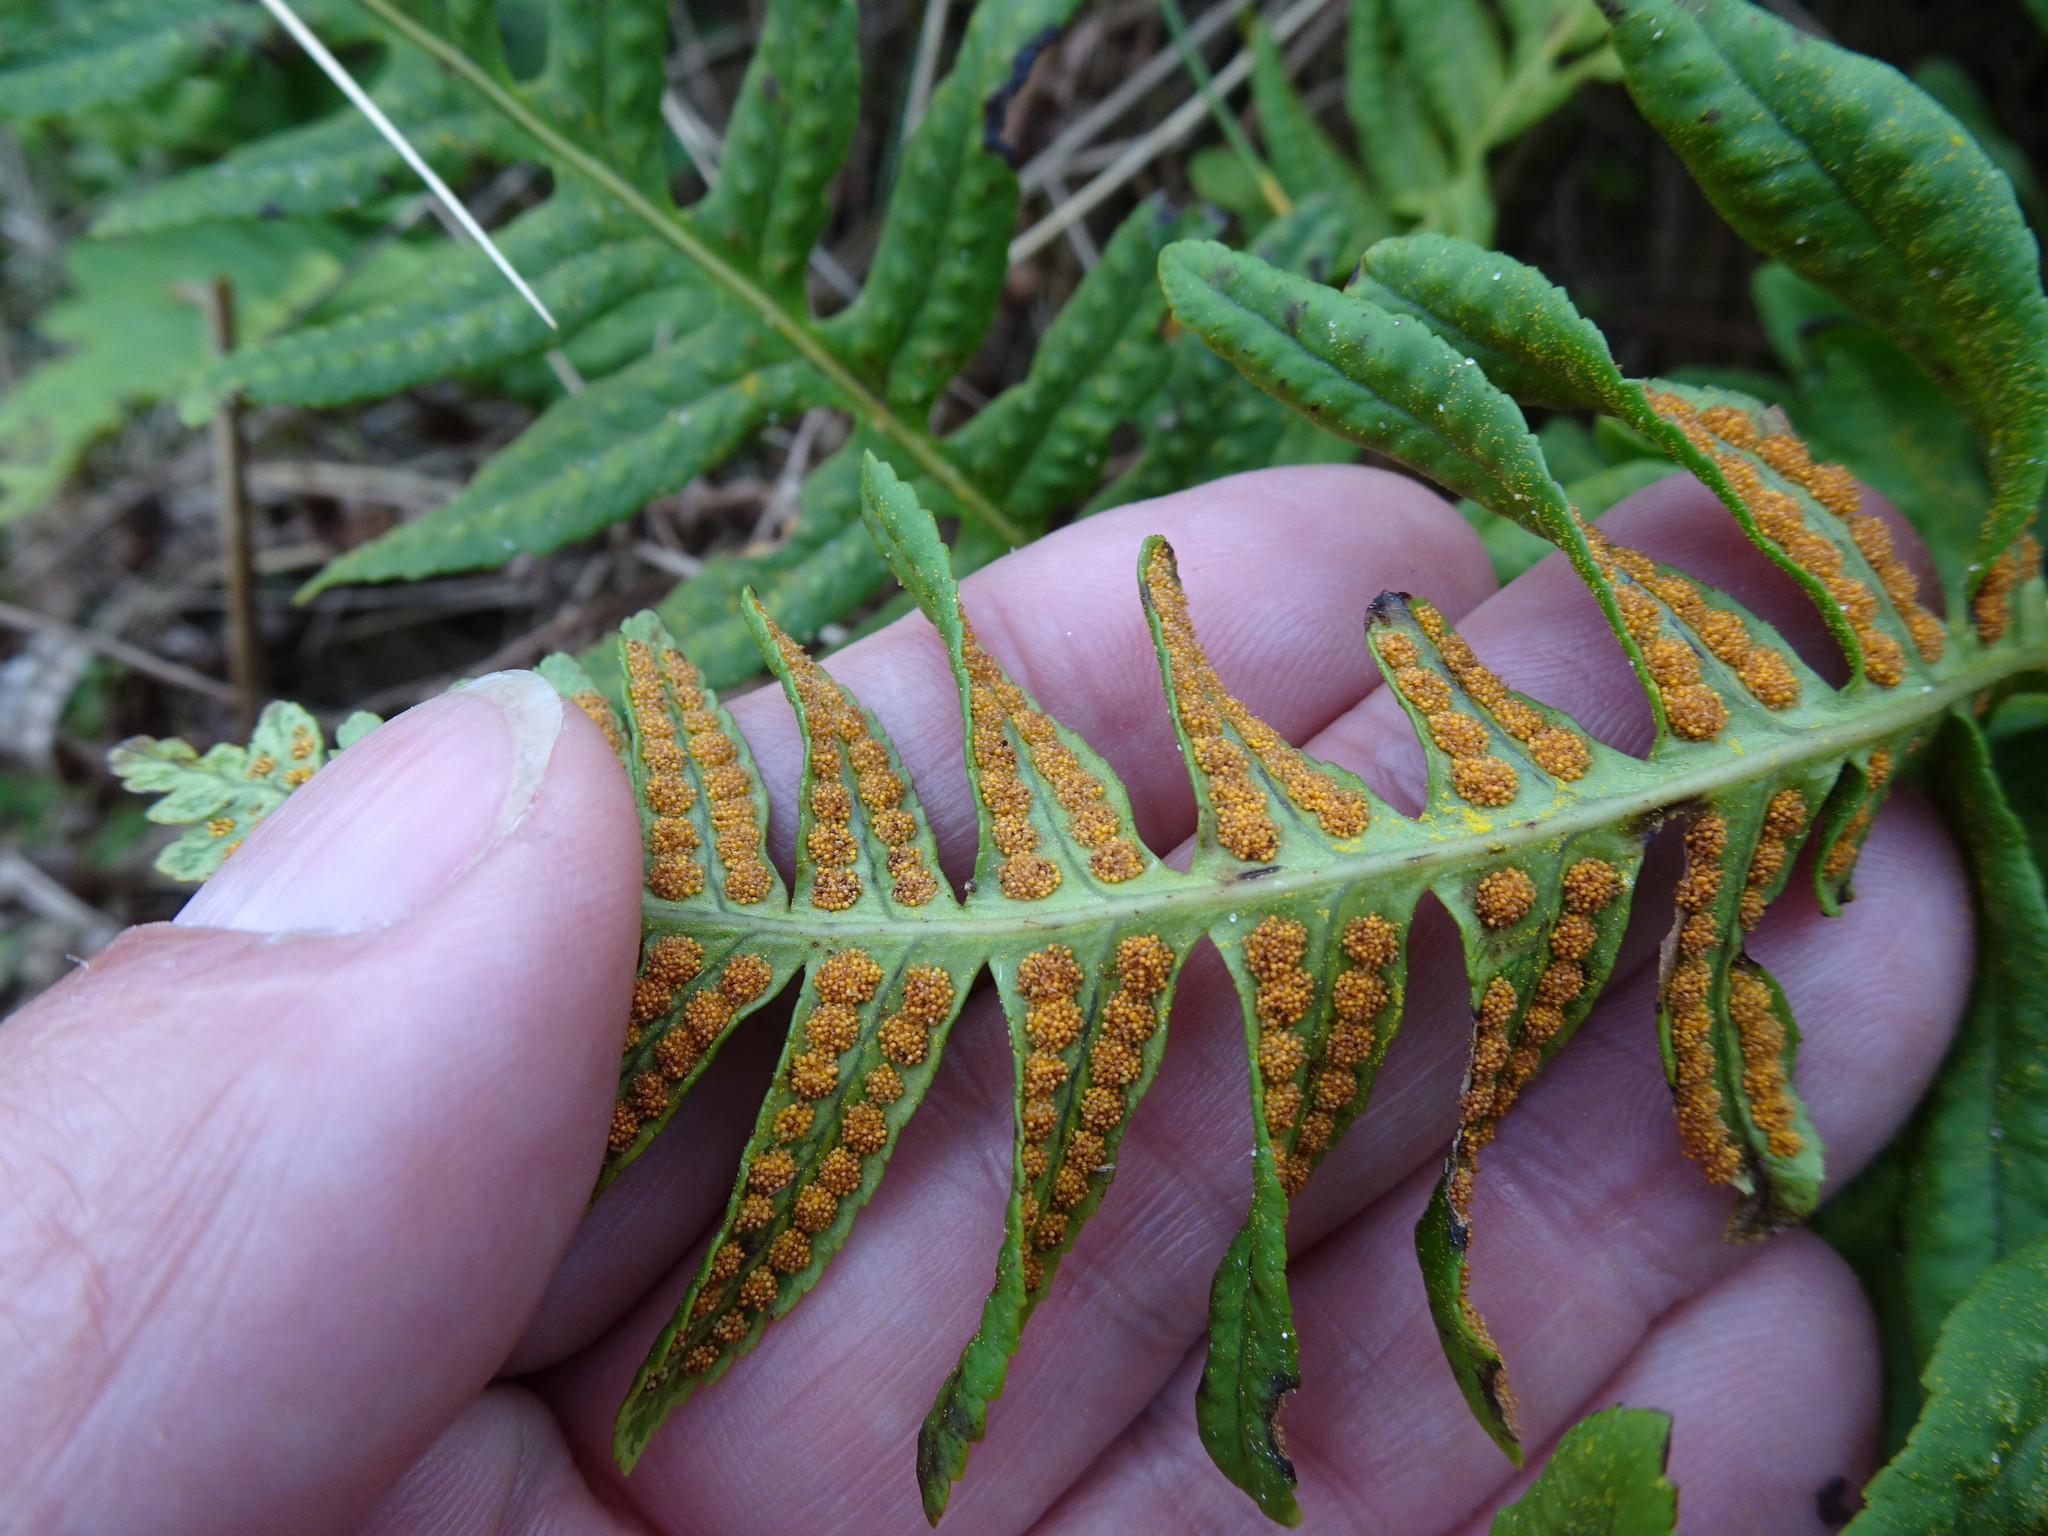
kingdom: Plantae
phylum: Tracheophyta
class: Polypodiopsida
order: Polypodiales
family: Polypodiaceae
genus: Polypodium
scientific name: Polypodium interjectum
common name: Intermediate polypody
